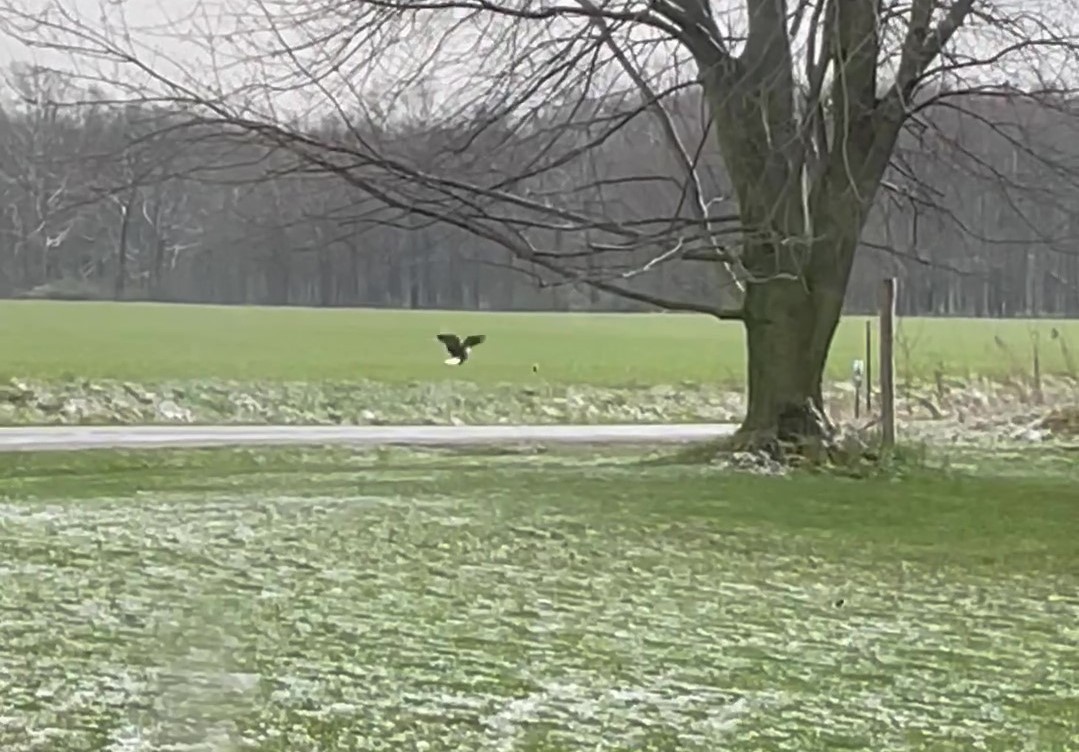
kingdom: Animalia
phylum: Chordata
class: Aves
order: Accipitriformes
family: Accipitridae
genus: Haliaeetus
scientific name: Haliaeetus leucocephalus
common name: Bald eagle
